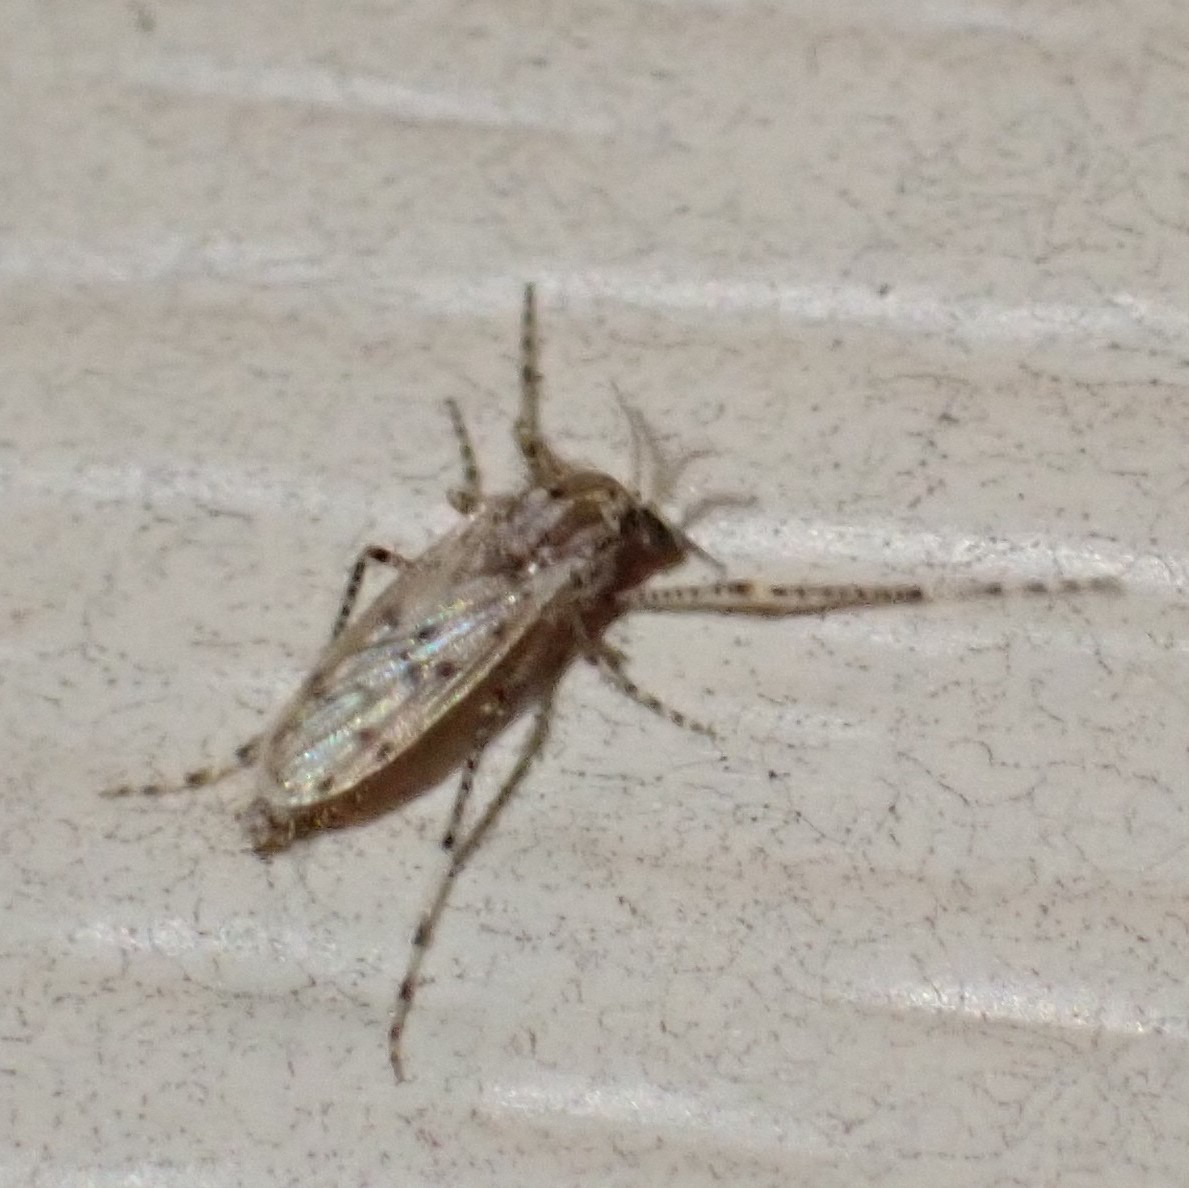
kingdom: Animalia
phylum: Arthropoda
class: Insecta
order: Diptera
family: Chaoboridae
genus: Chaoborus
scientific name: Chaoborus punctipennis
